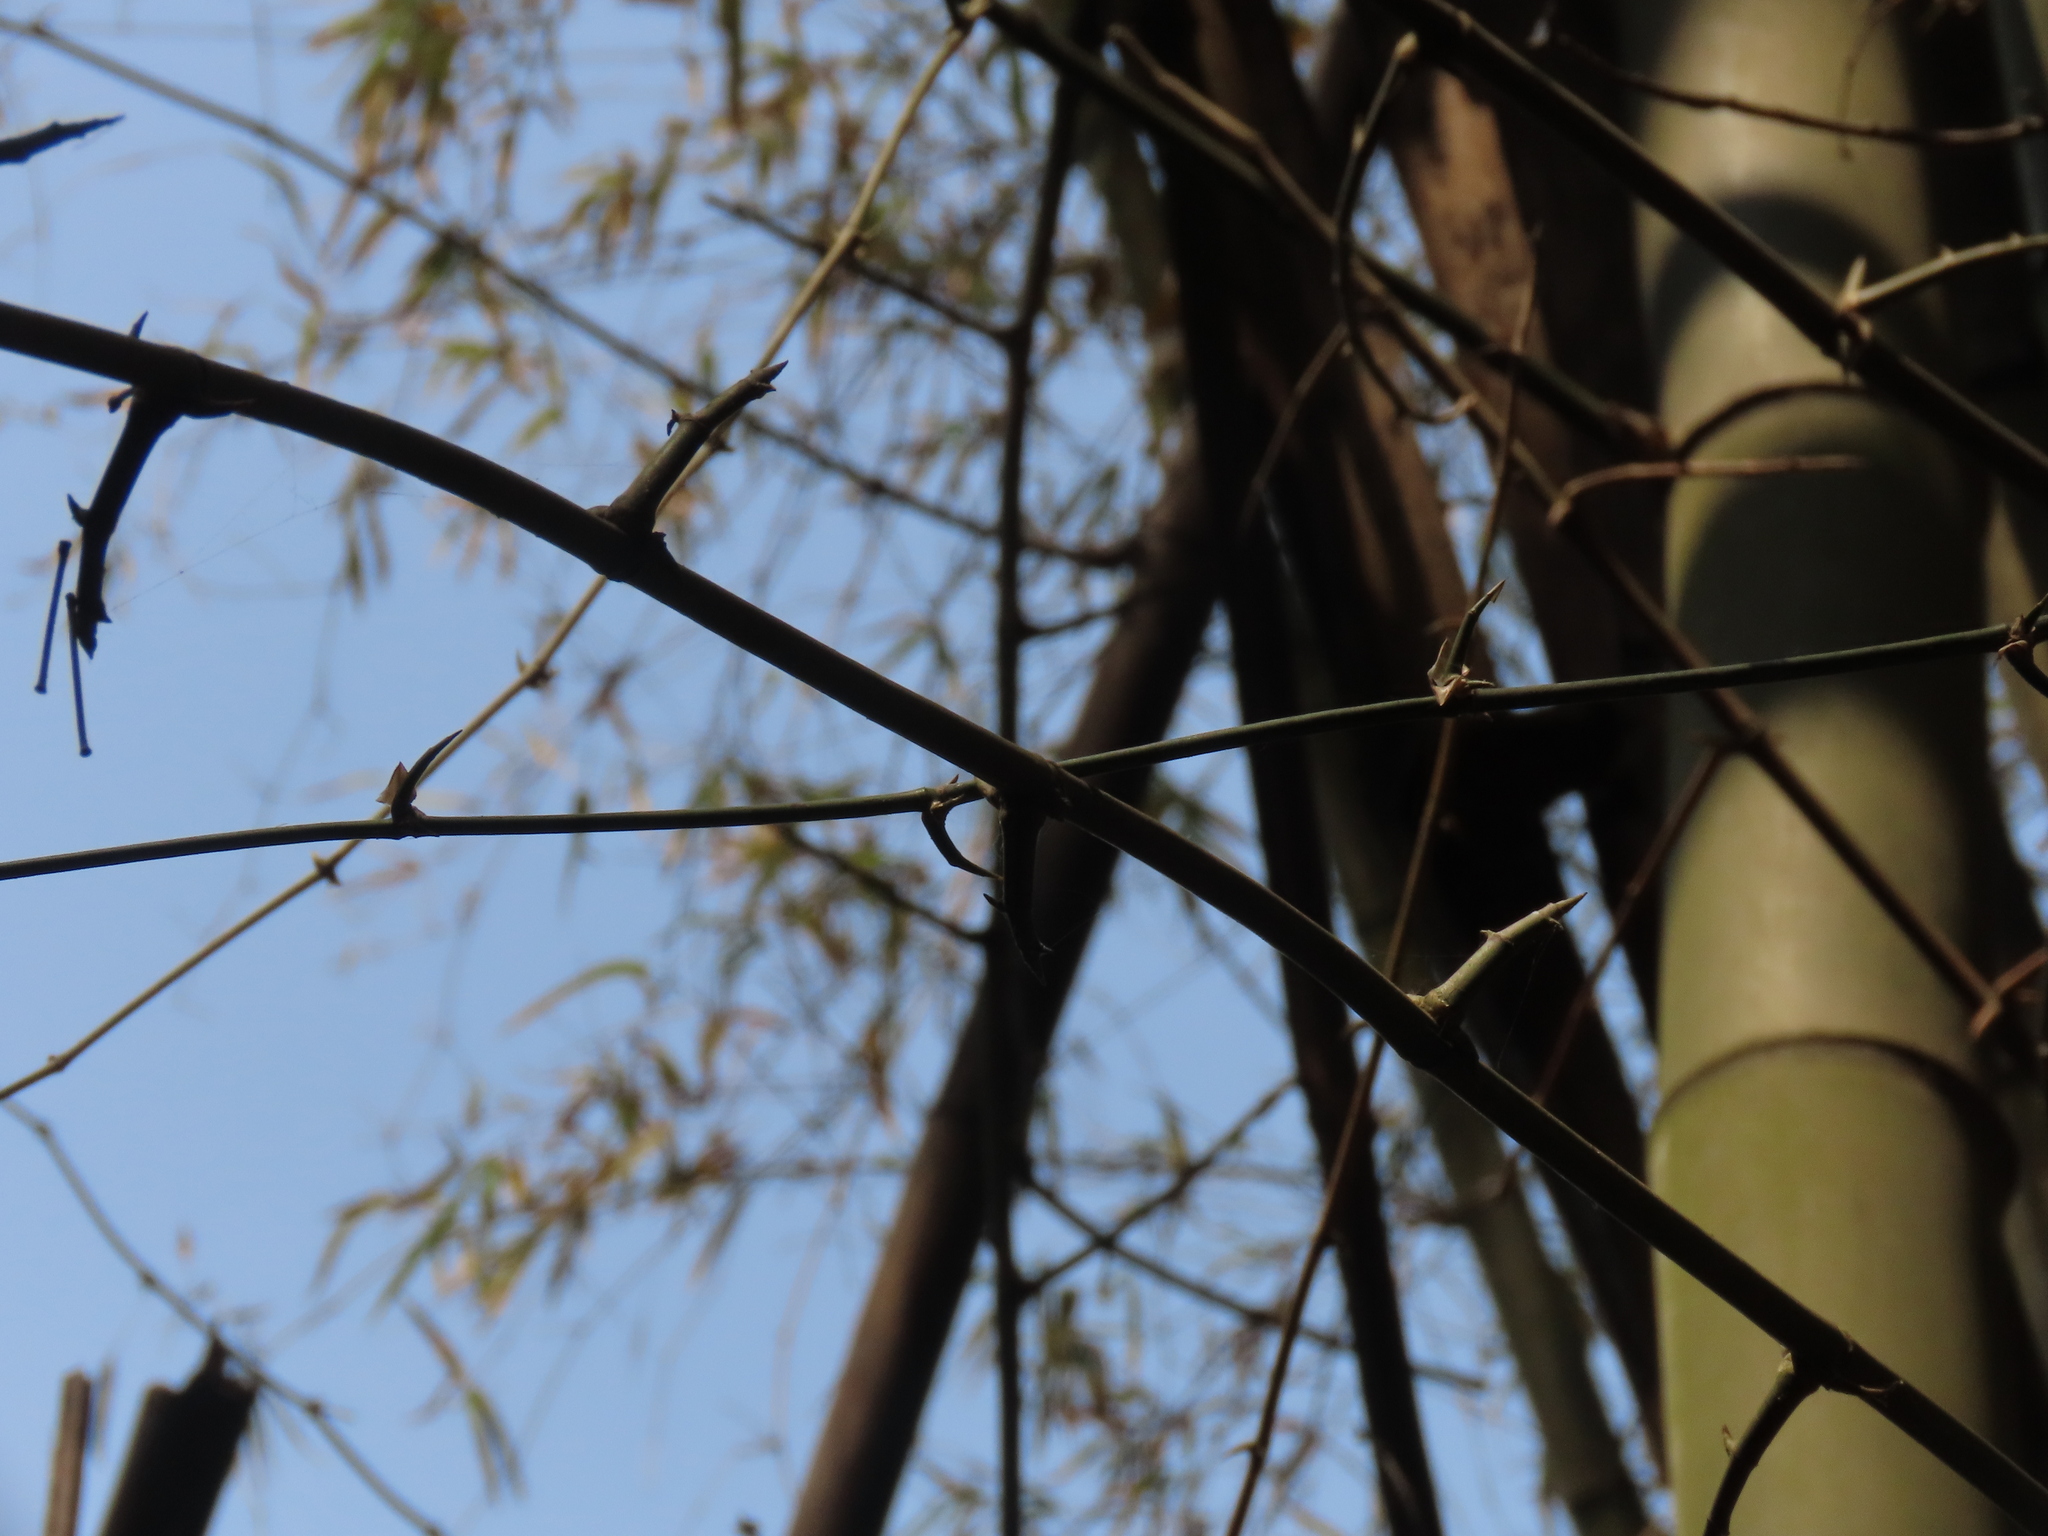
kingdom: Plantae
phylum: Tracheophyta
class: Liliopsida
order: Poales
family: Poaceae
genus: Bambusa
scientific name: Bambusa spinosa
